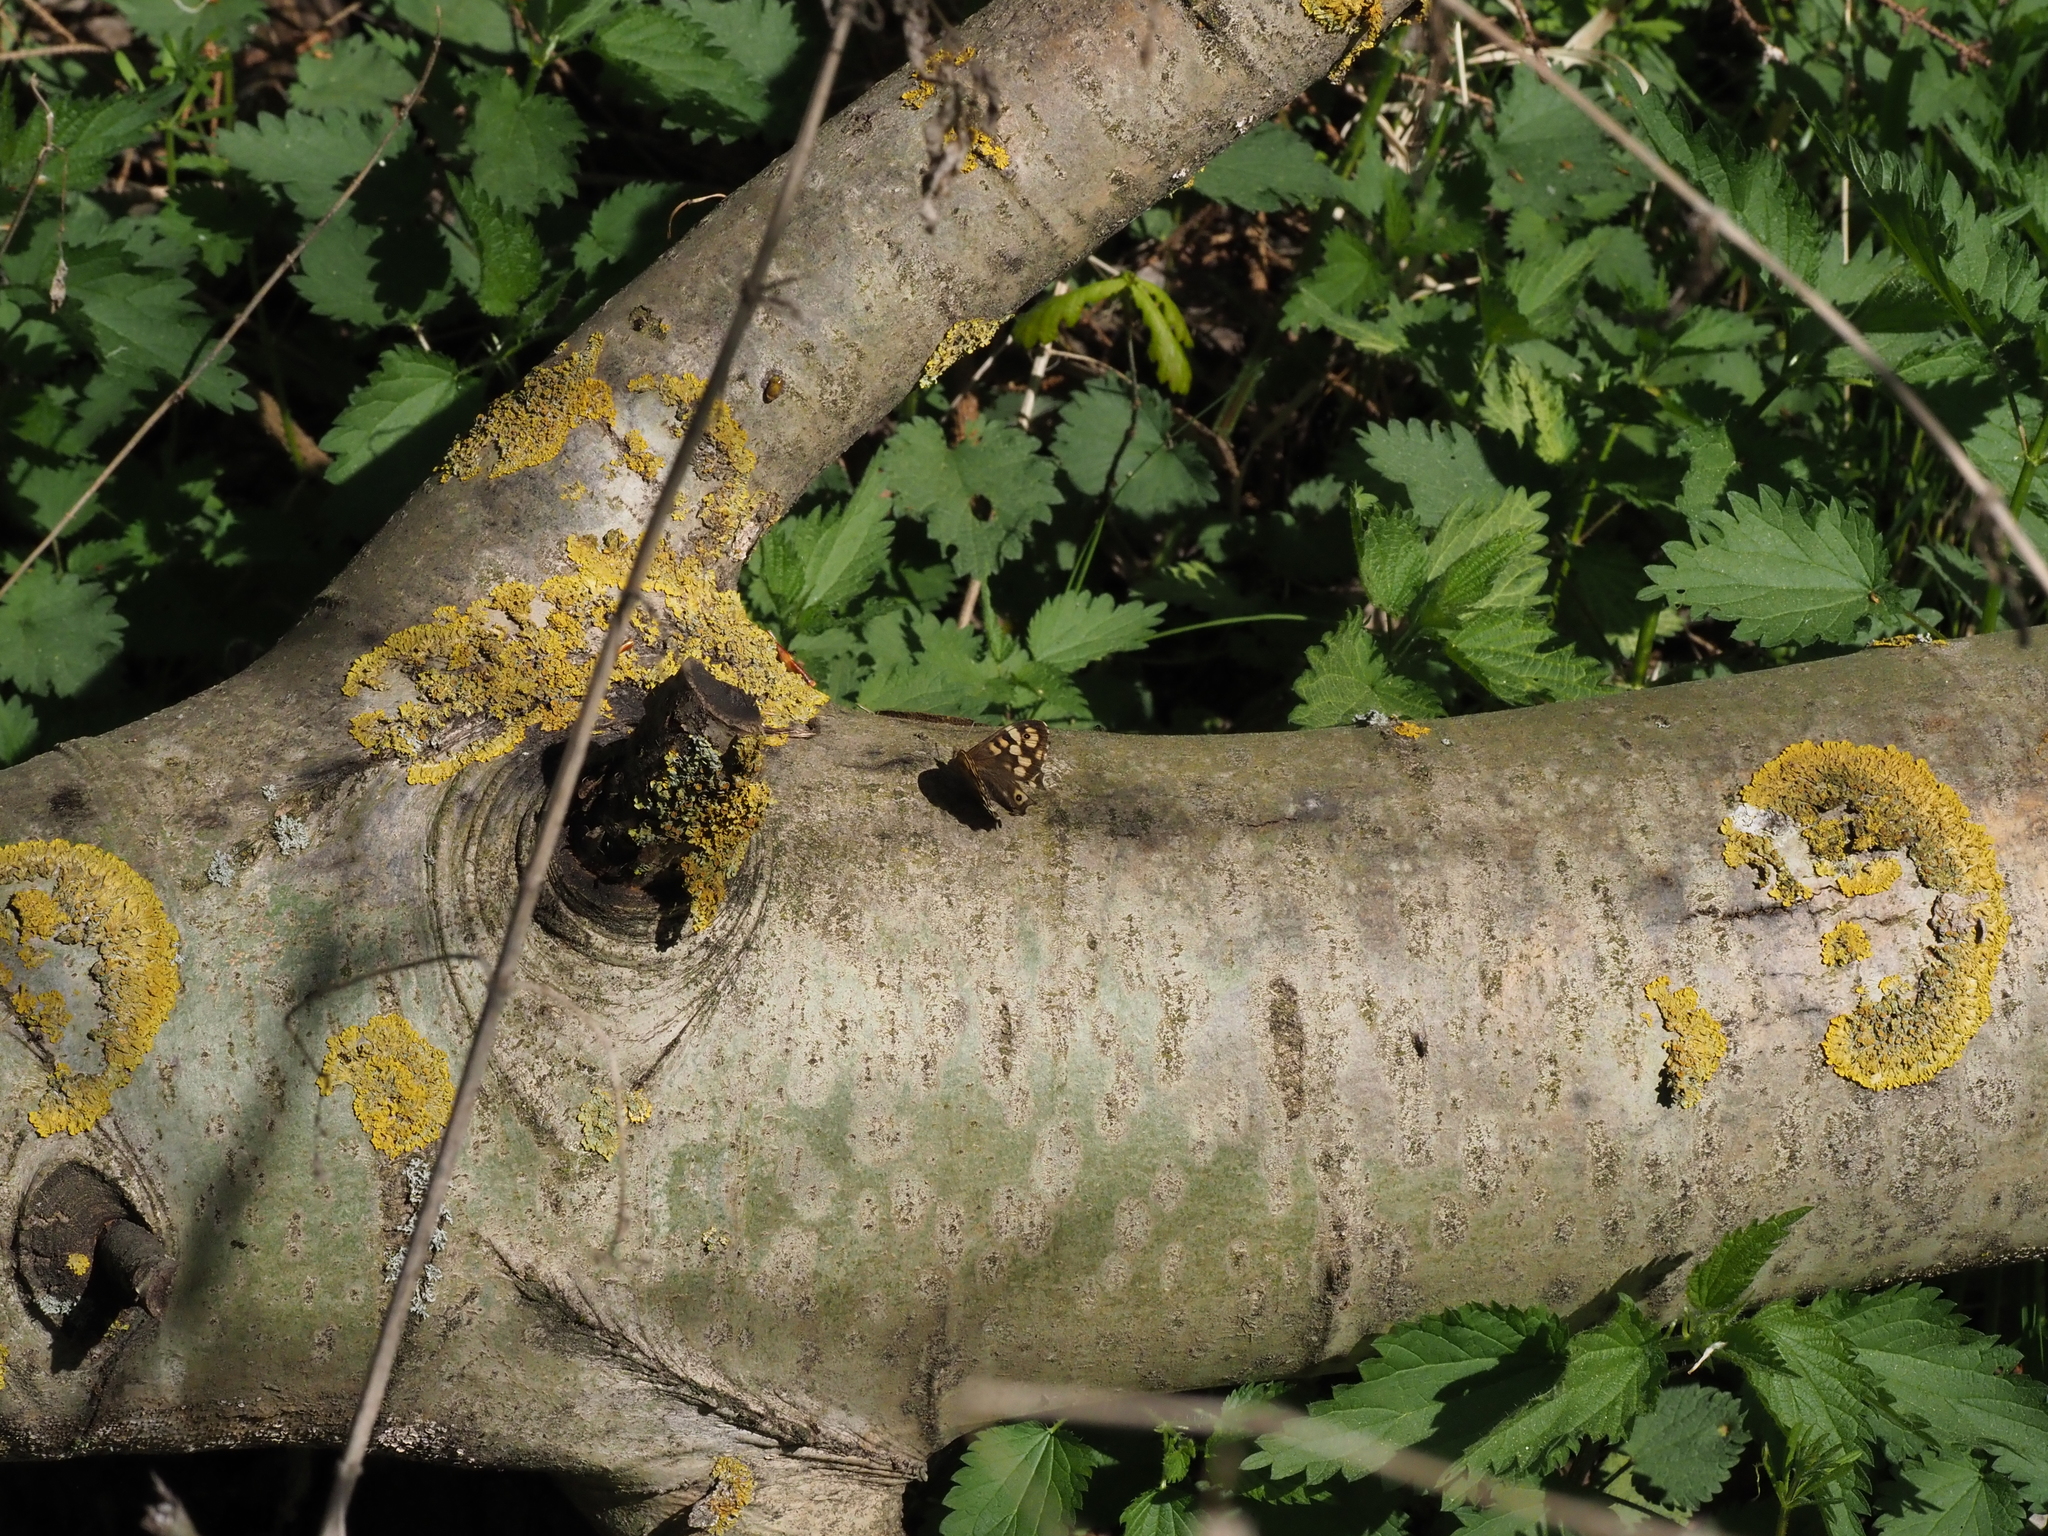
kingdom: Animalia
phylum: Arthropoda
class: Insecta
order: Lepidoptera
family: Nymphalidae
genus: Pararge
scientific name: Pararge aegeria
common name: Speckled wood
